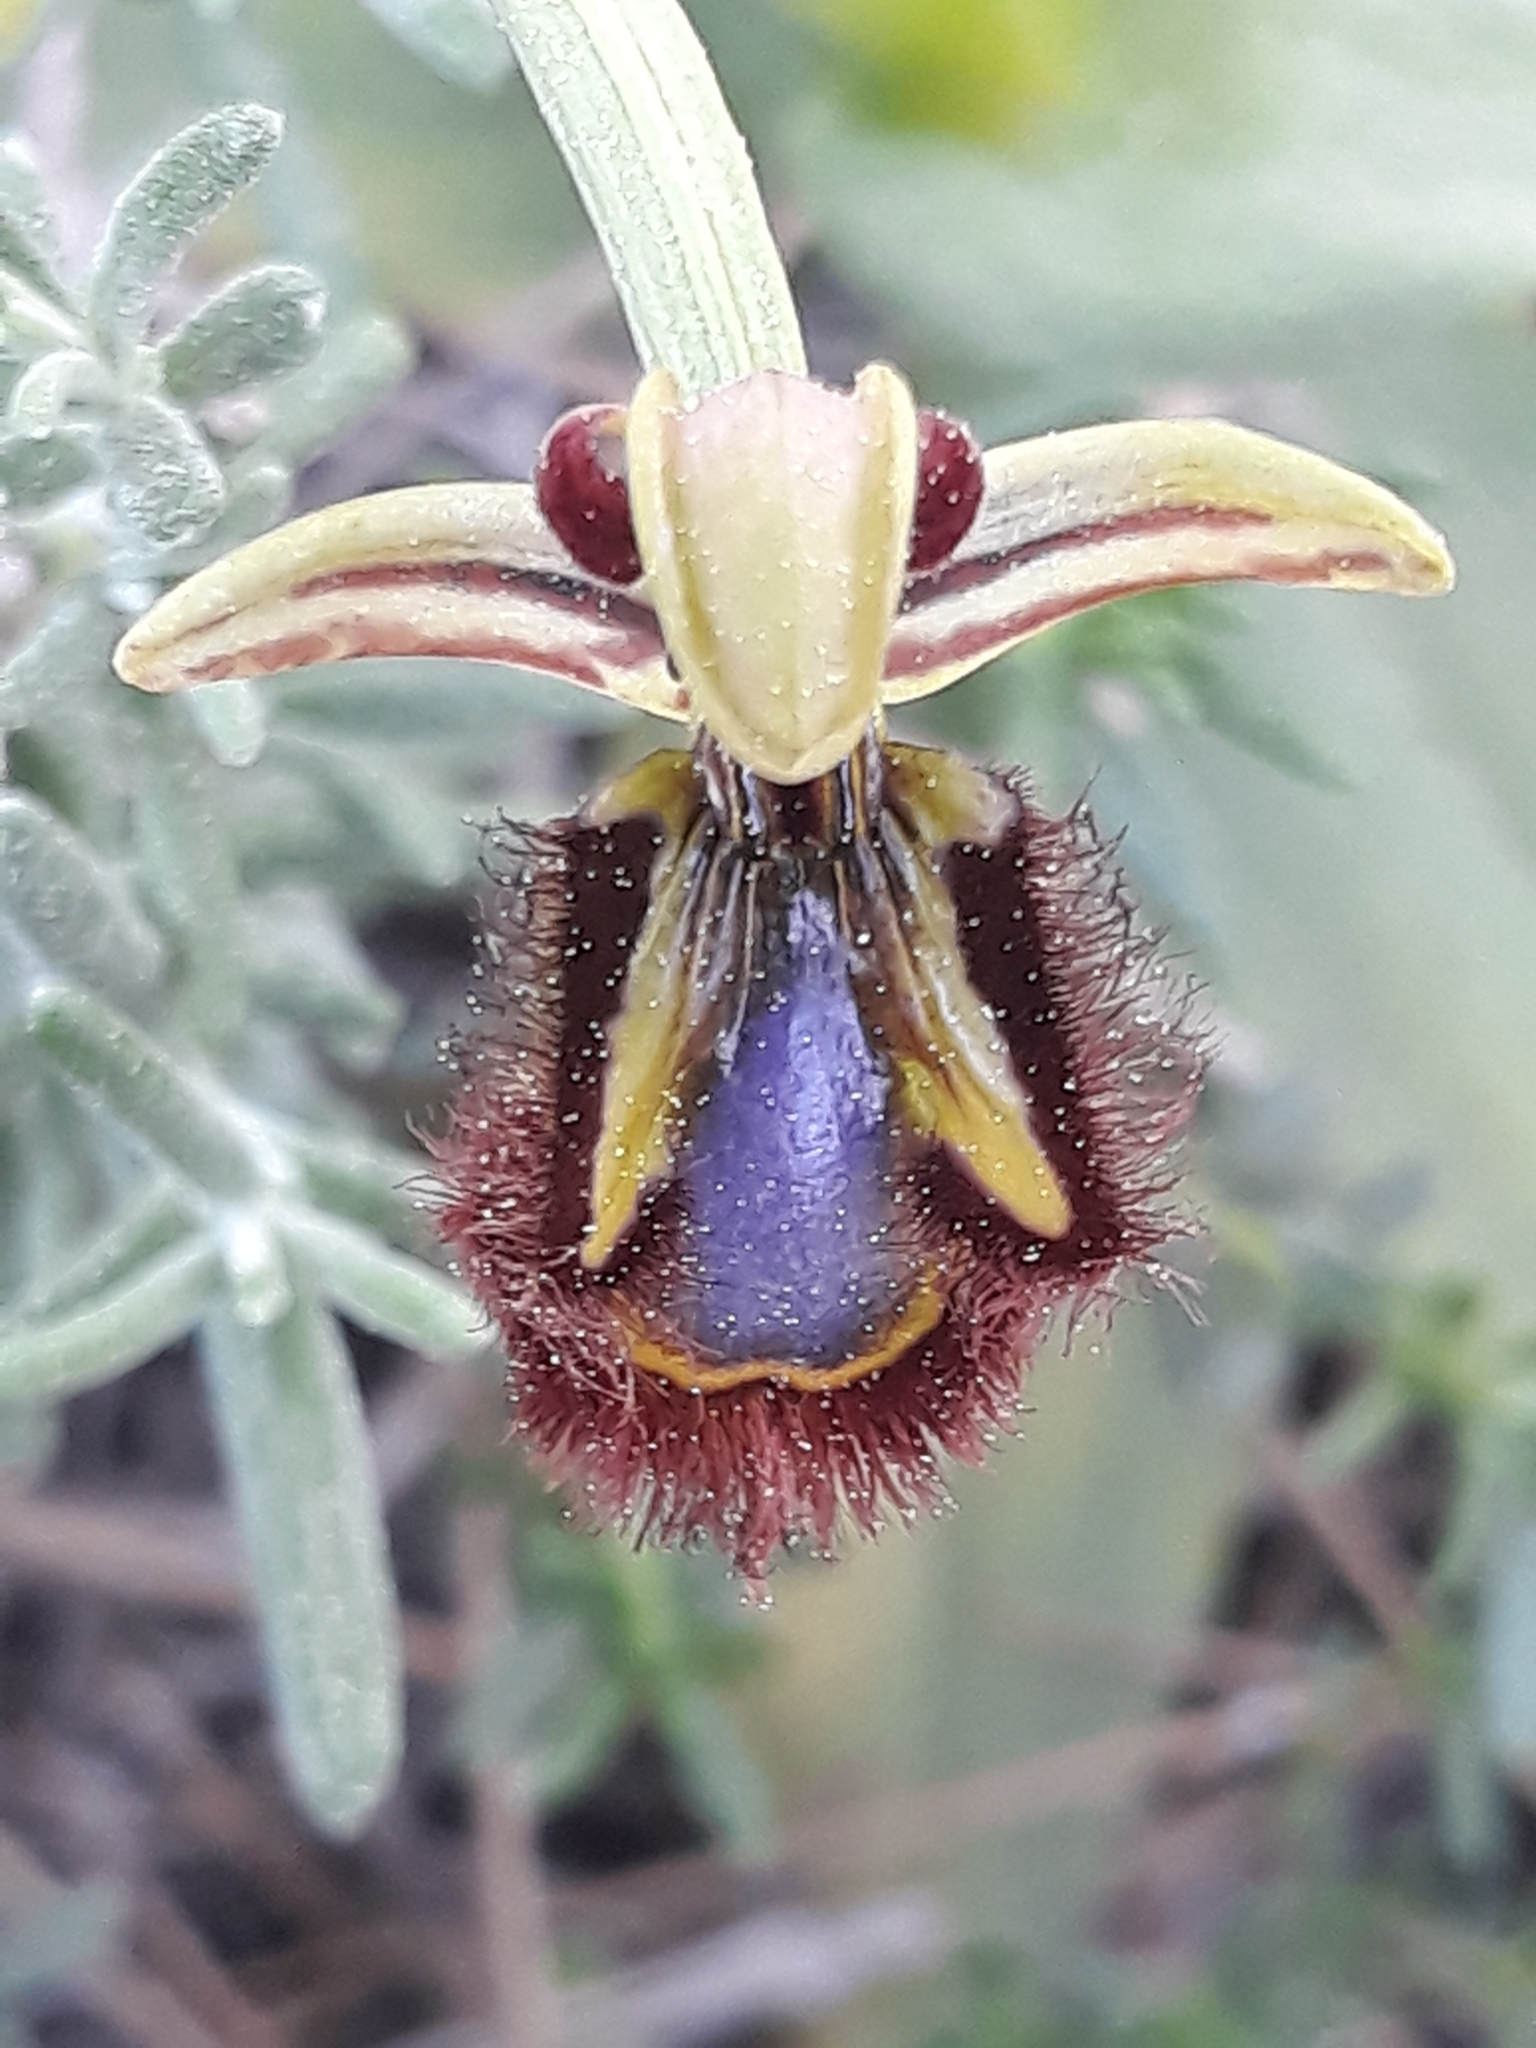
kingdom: Plantae
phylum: Tracheophyta
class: Liliopsida
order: Asparagales
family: Orchidaceae
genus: Ophrys
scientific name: Ophrys speculum
